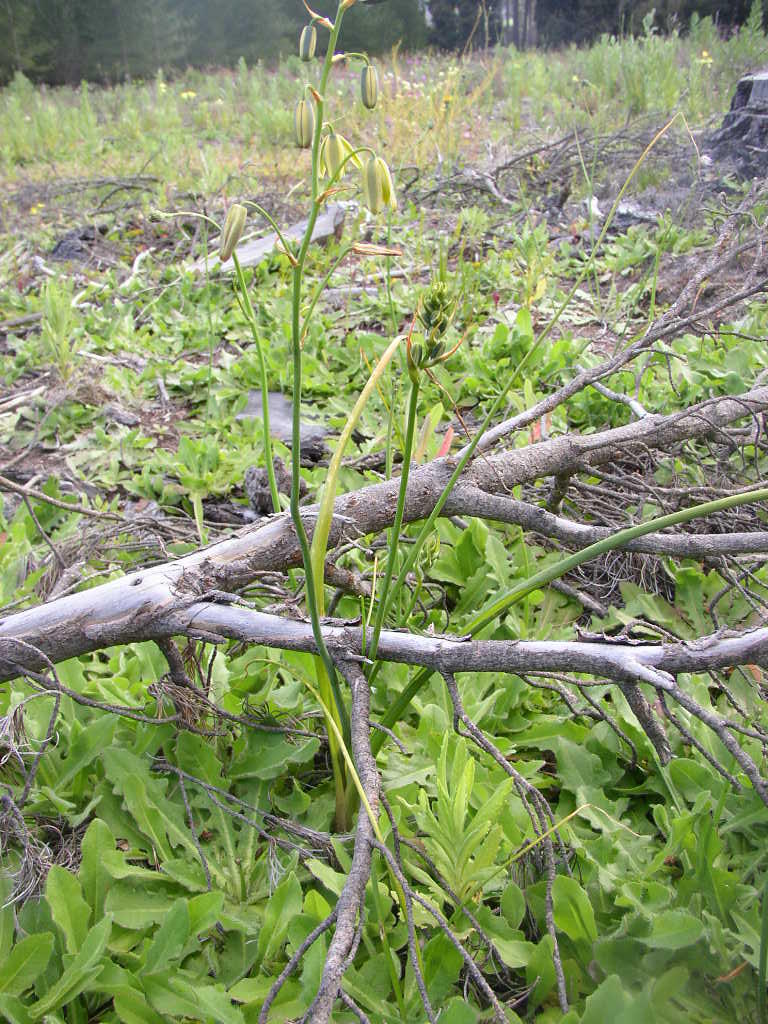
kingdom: Plantae
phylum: Tracheophyta
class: Liliopsida
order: Asparagales
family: Asparagaceae
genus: Albuca
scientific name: Albuca flaccida
